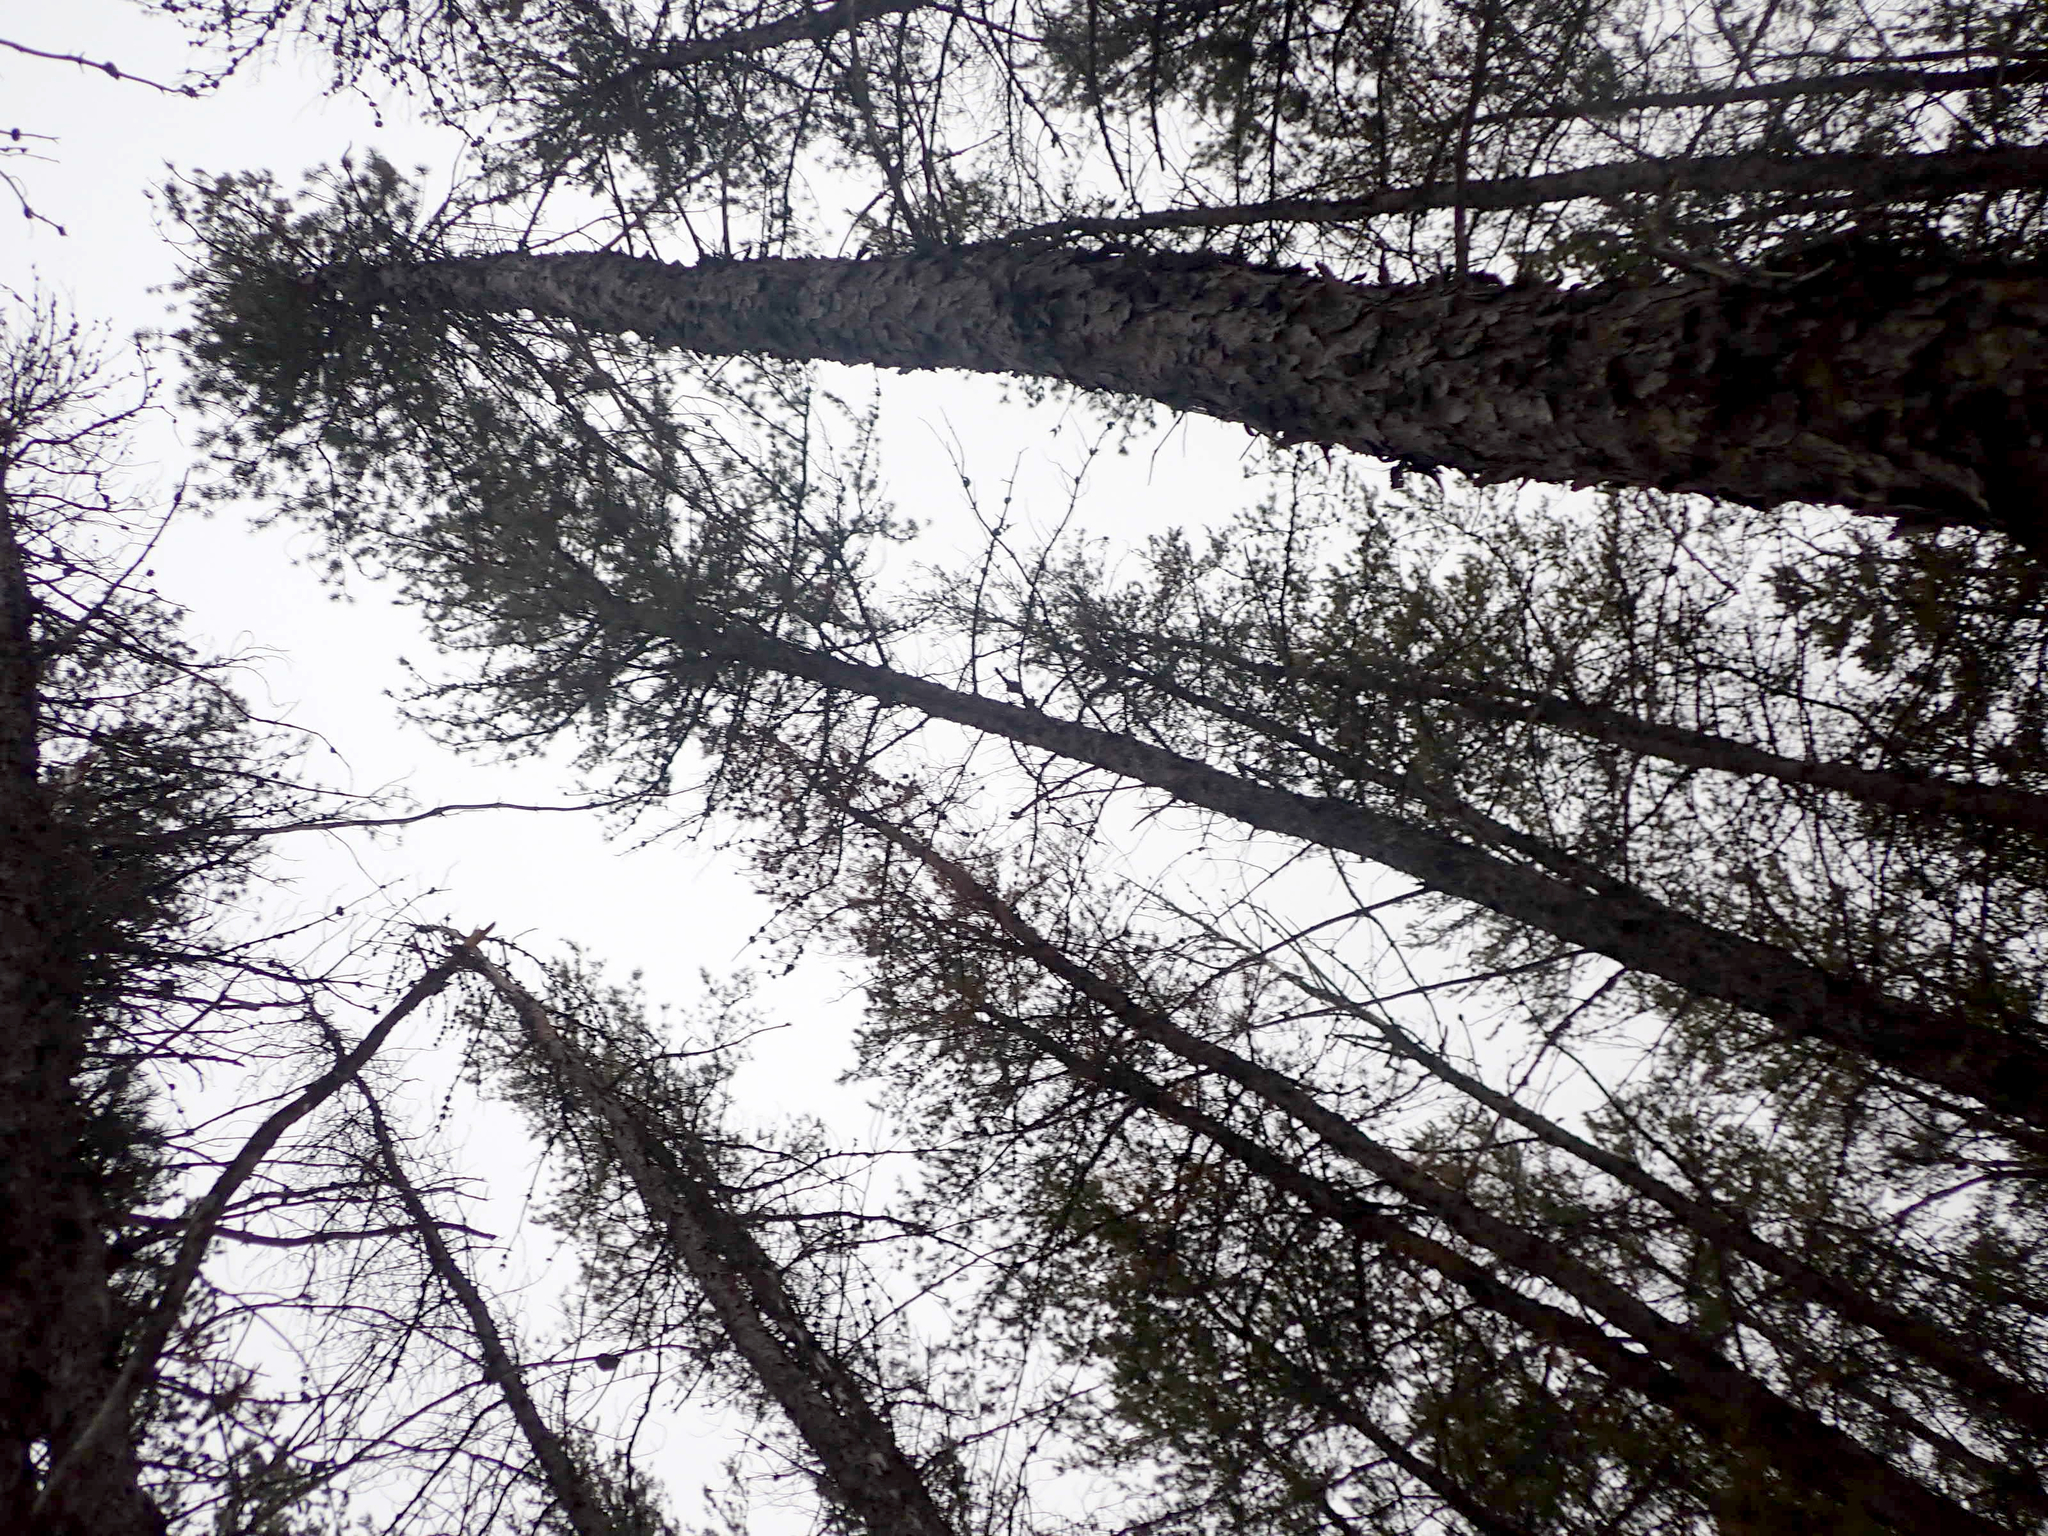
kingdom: Plantae
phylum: Tracheophyta
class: Pinopsida
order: Pinales
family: Pinaceae
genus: Pinus
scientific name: Pinus banksiana
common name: Jack pine
